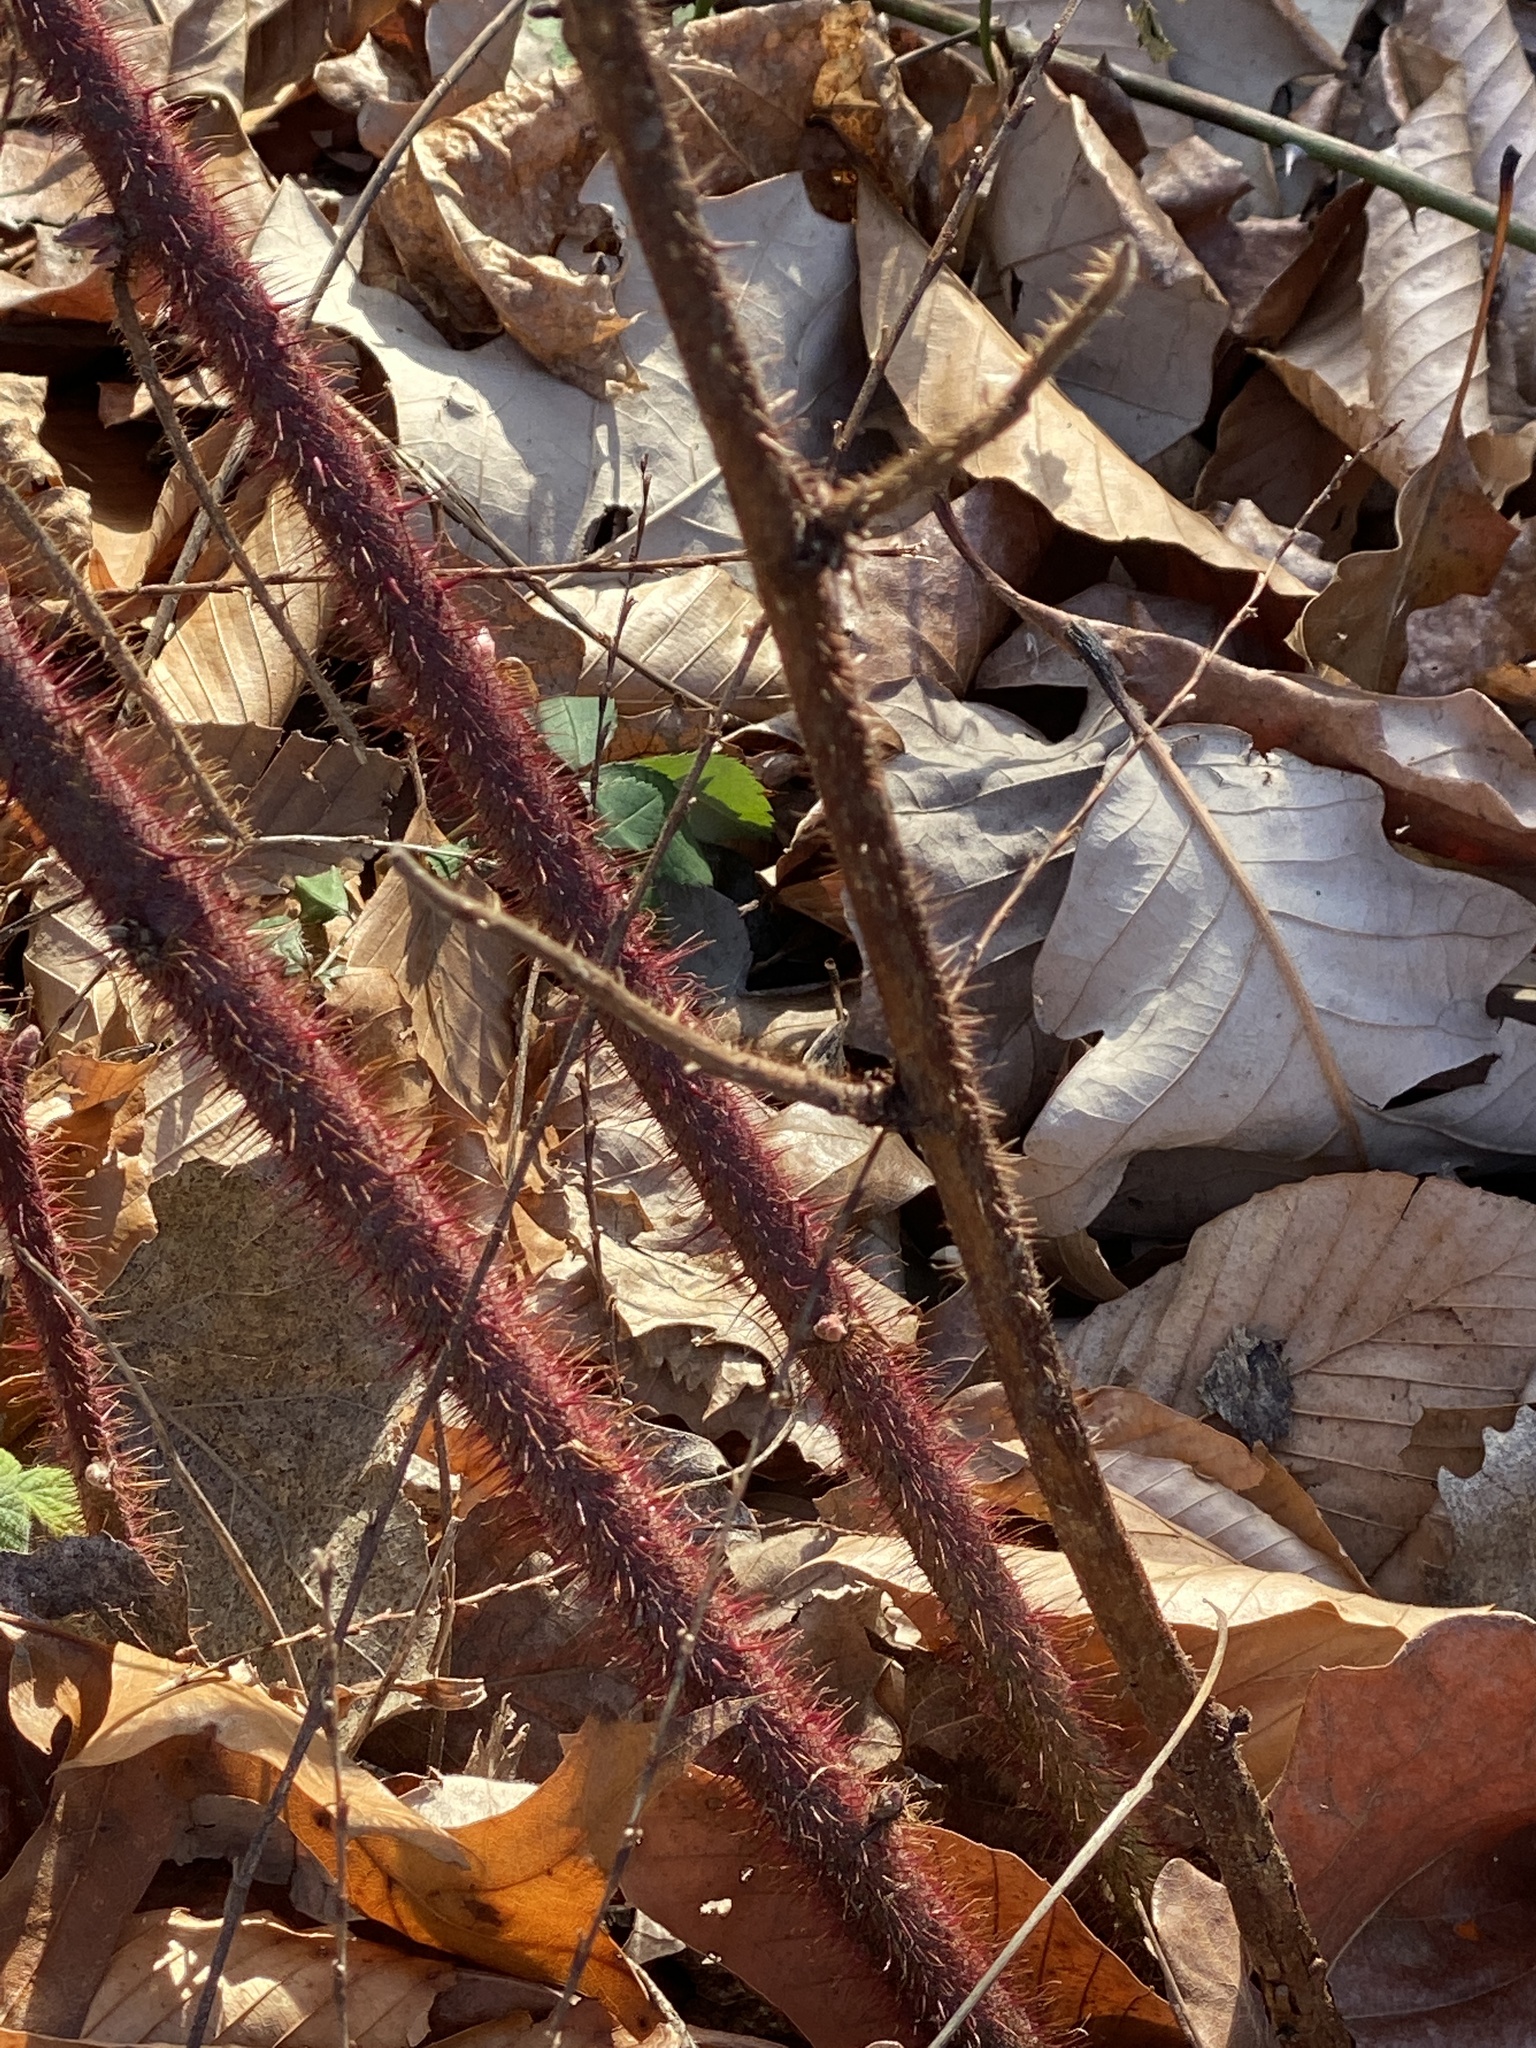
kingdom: Plantae
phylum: Tracheophyta
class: Magnoliopsida
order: Rosales
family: Rosaceae
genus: Rubus
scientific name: Rubus phoenicolasius
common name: Japanese wineberry
